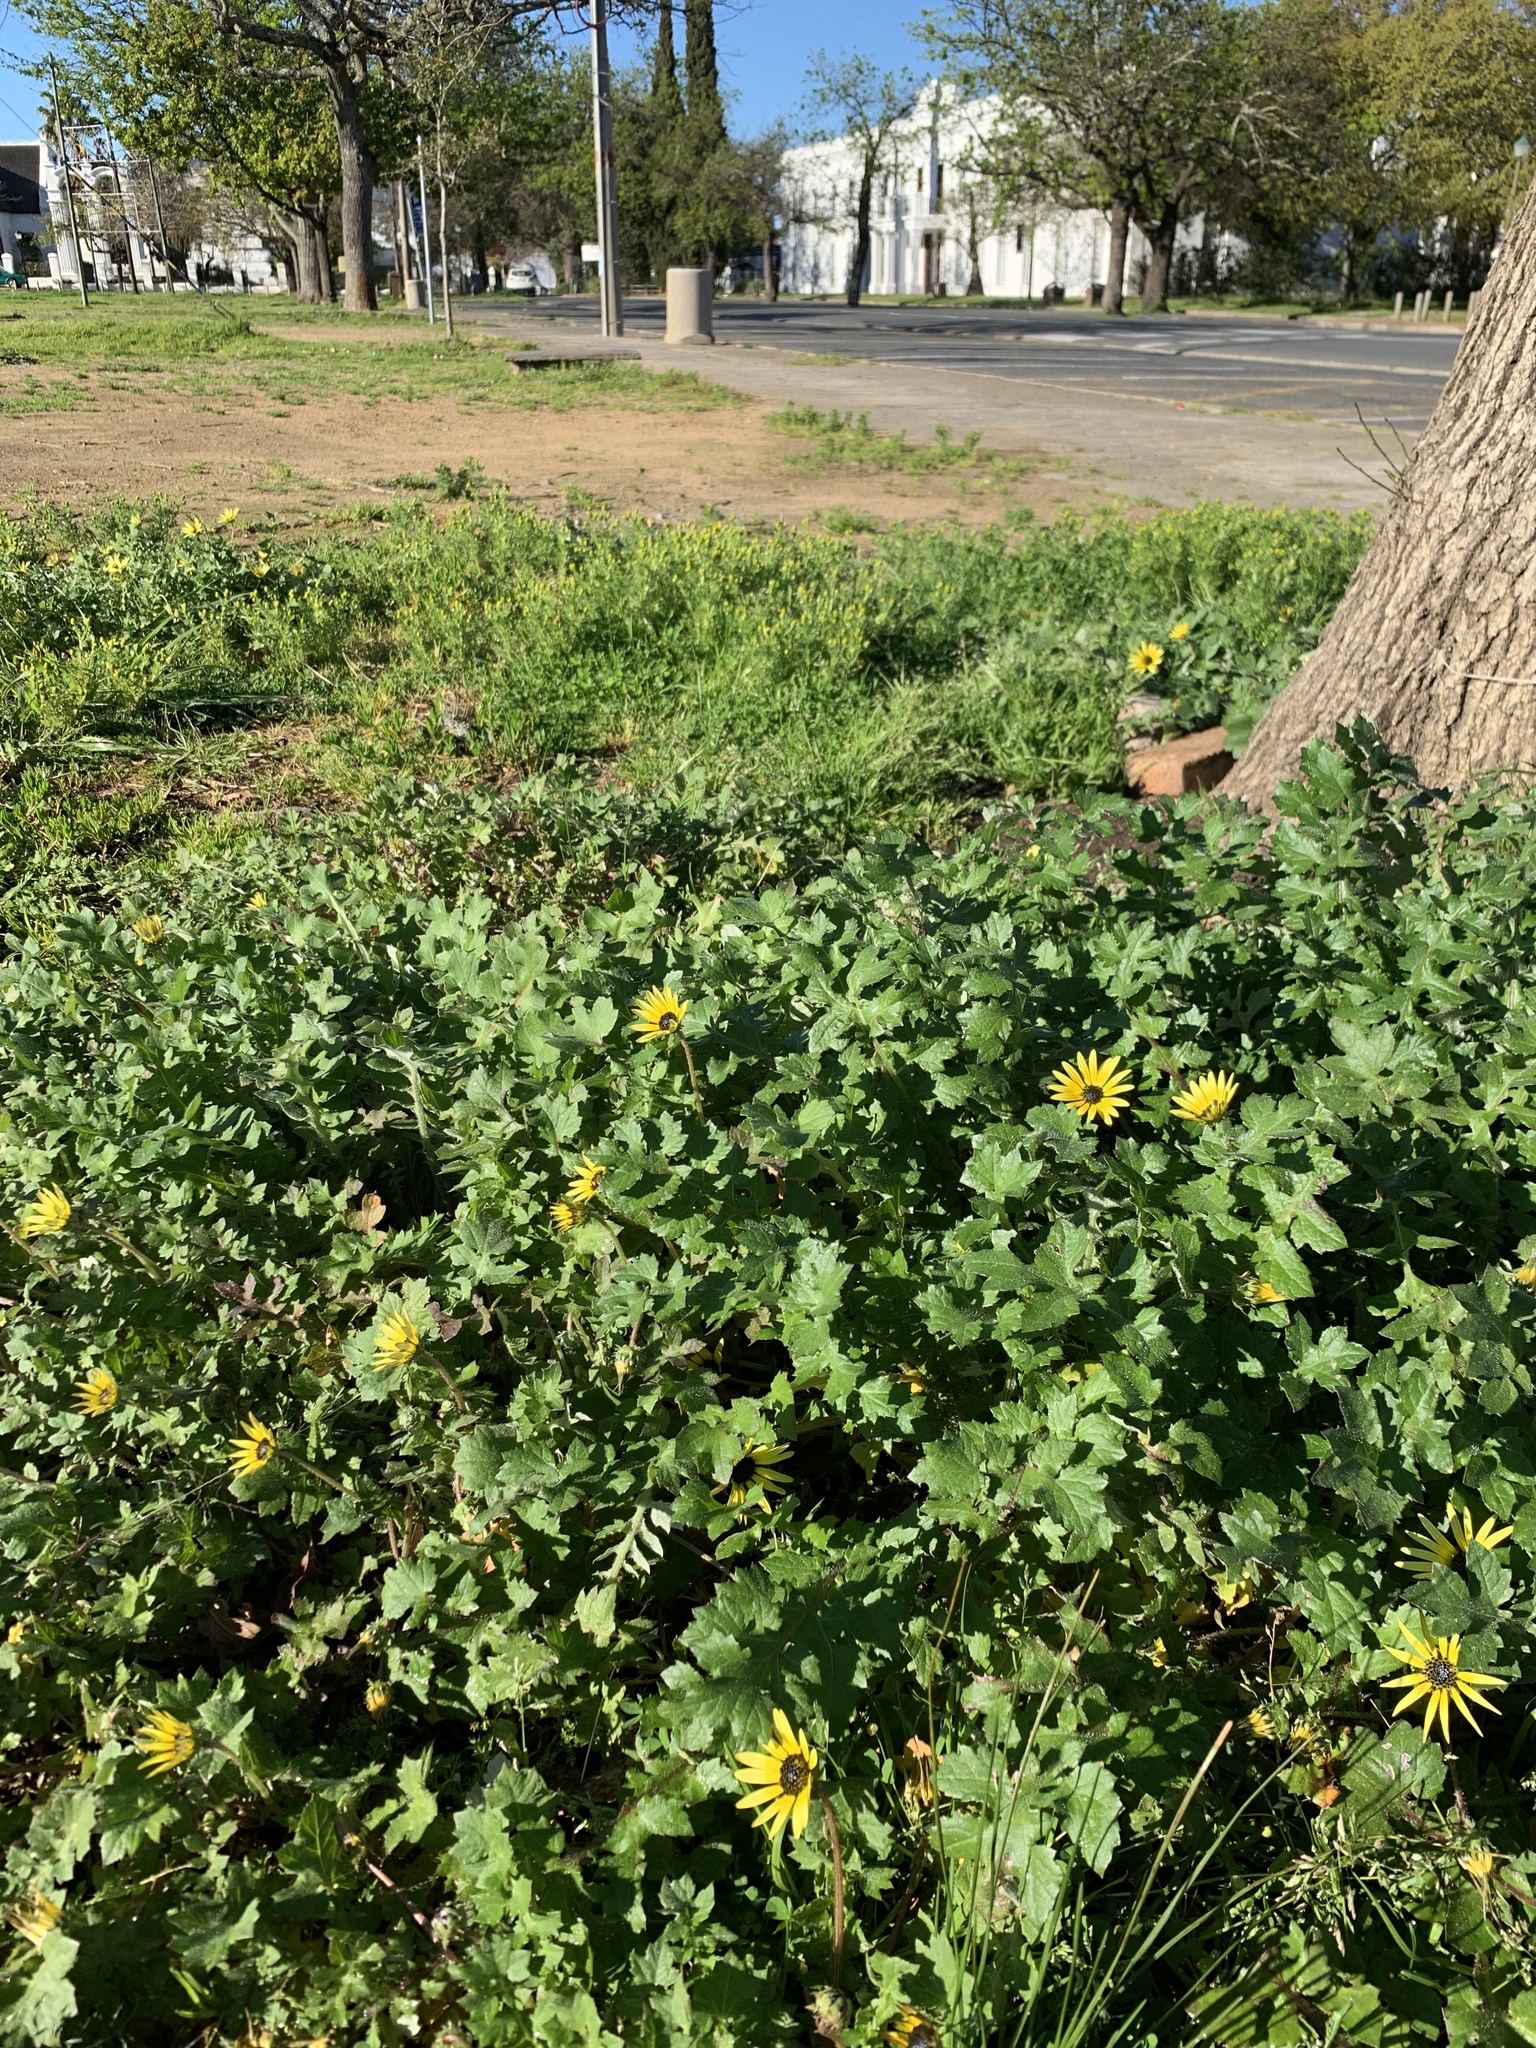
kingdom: Plantae
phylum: Tracheophyta
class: Magnoliopsida
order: Asterales
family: Asteraceae
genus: Arctotheca
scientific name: Arctotheca calendula
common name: Capeweed
